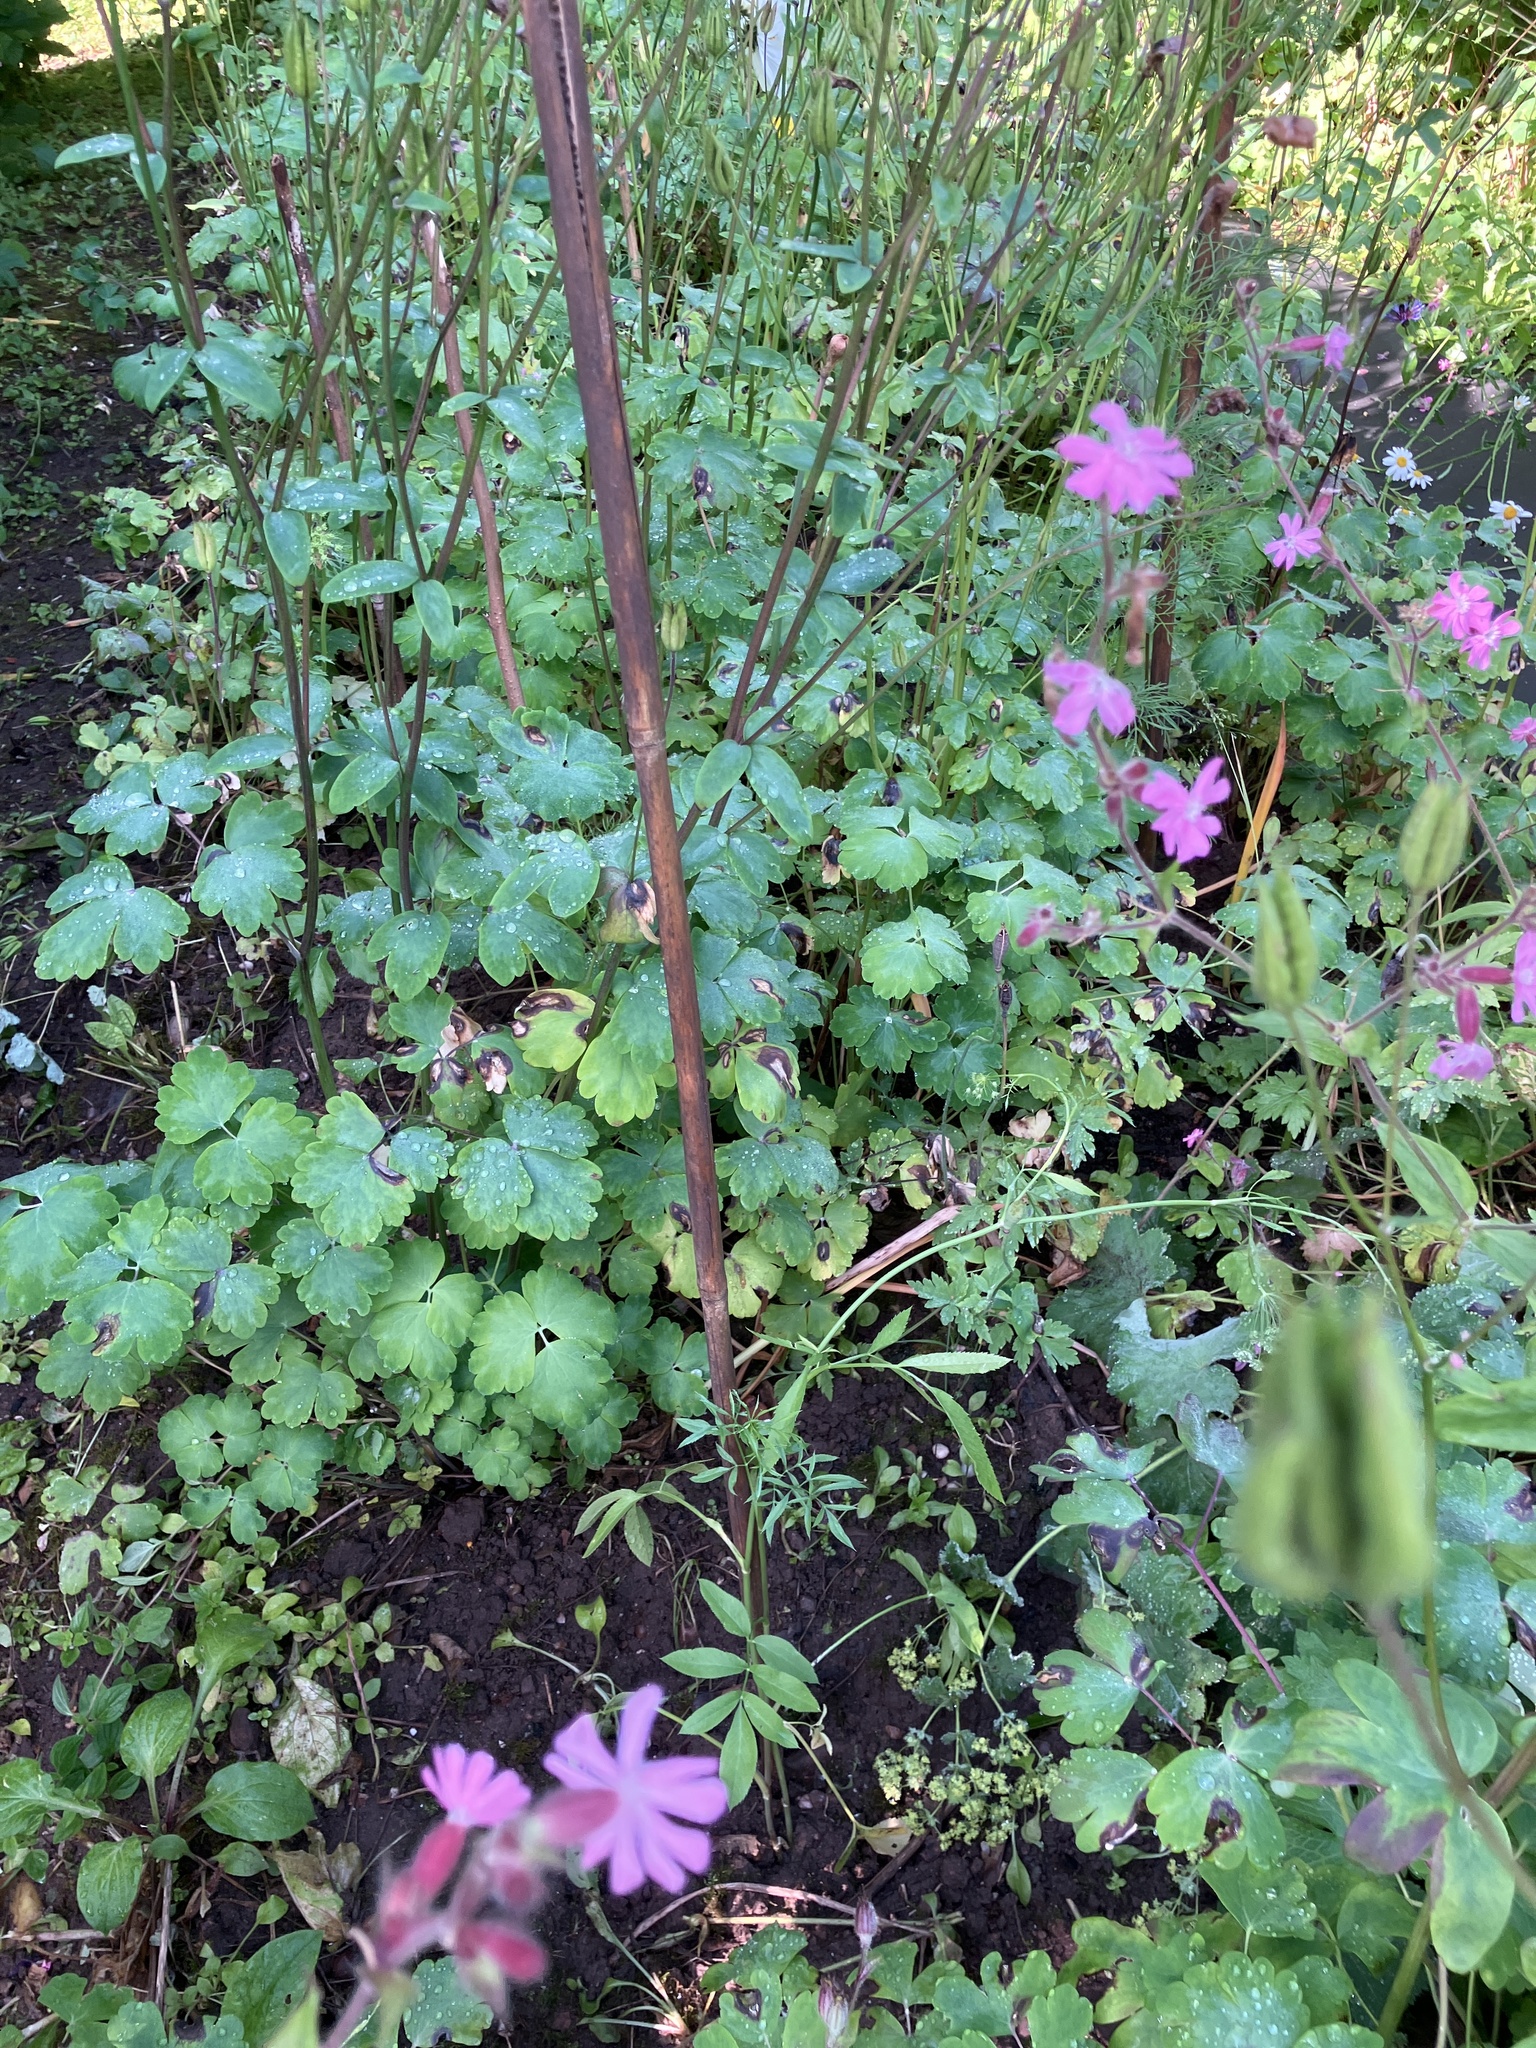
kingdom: Plantae
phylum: Tracheophyta
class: Magnoliopsida
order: Caryophyllales
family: Caryophyllaceae
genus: Silene
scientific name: Silene dioica
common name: Red campion
